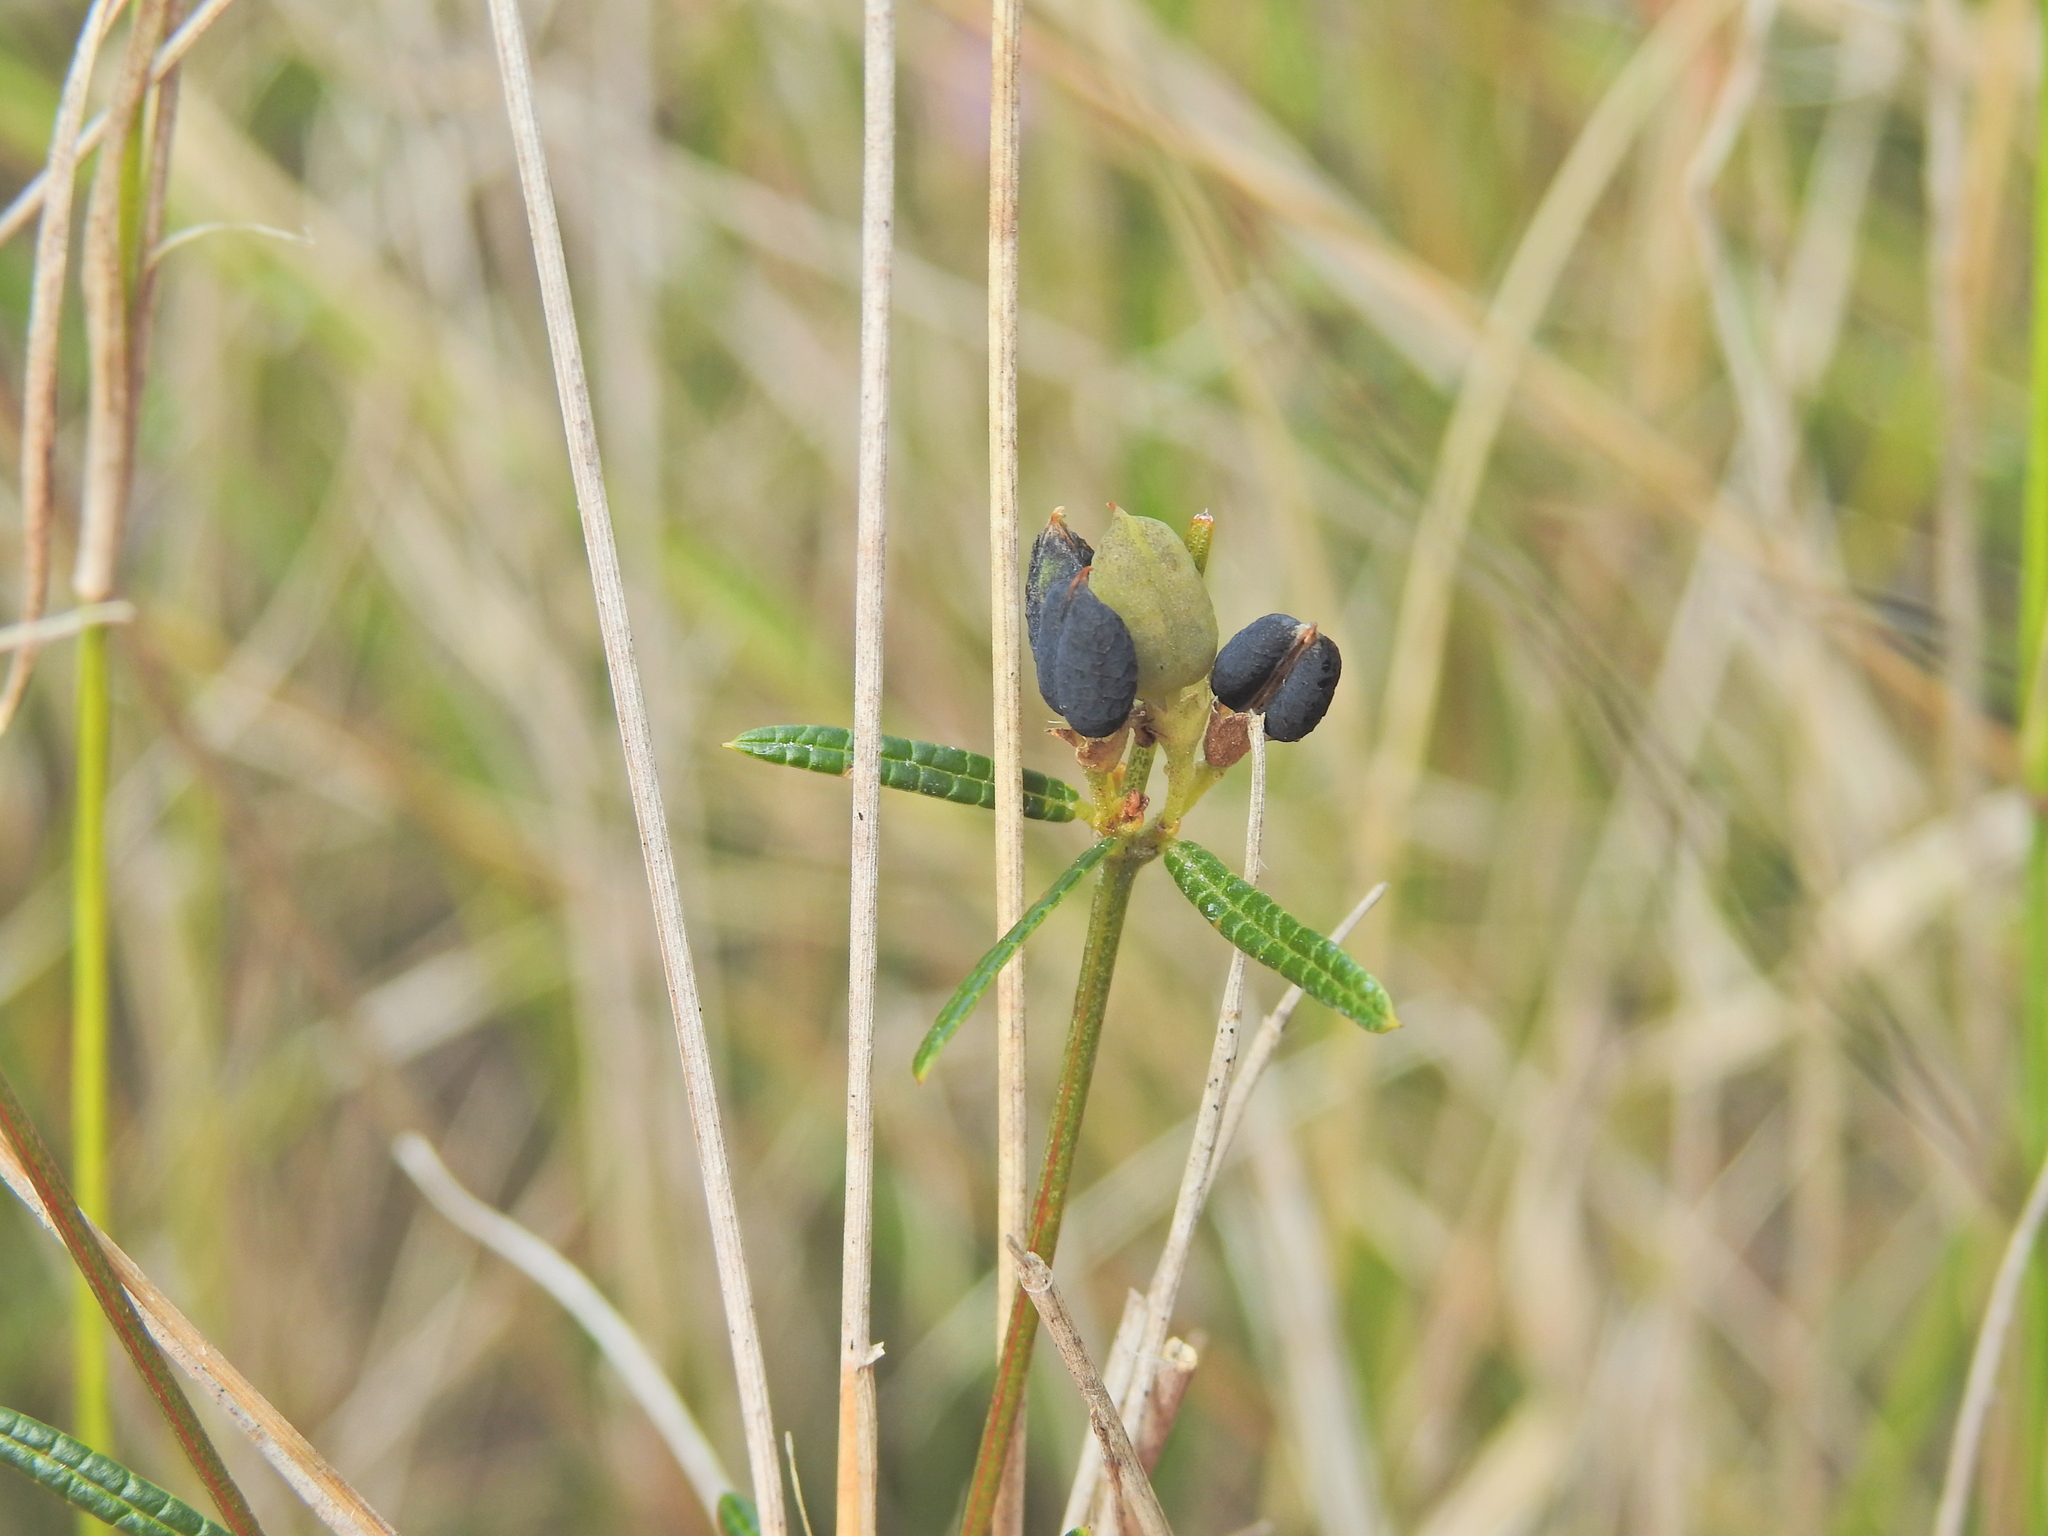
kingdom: Plantae
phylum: Tracheophyta
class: Magnoliopsida
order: Fabales
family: Fabaceae
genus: Mirbelia
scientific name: Mirbelia rubiifolia
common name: Heathy mirbelia
